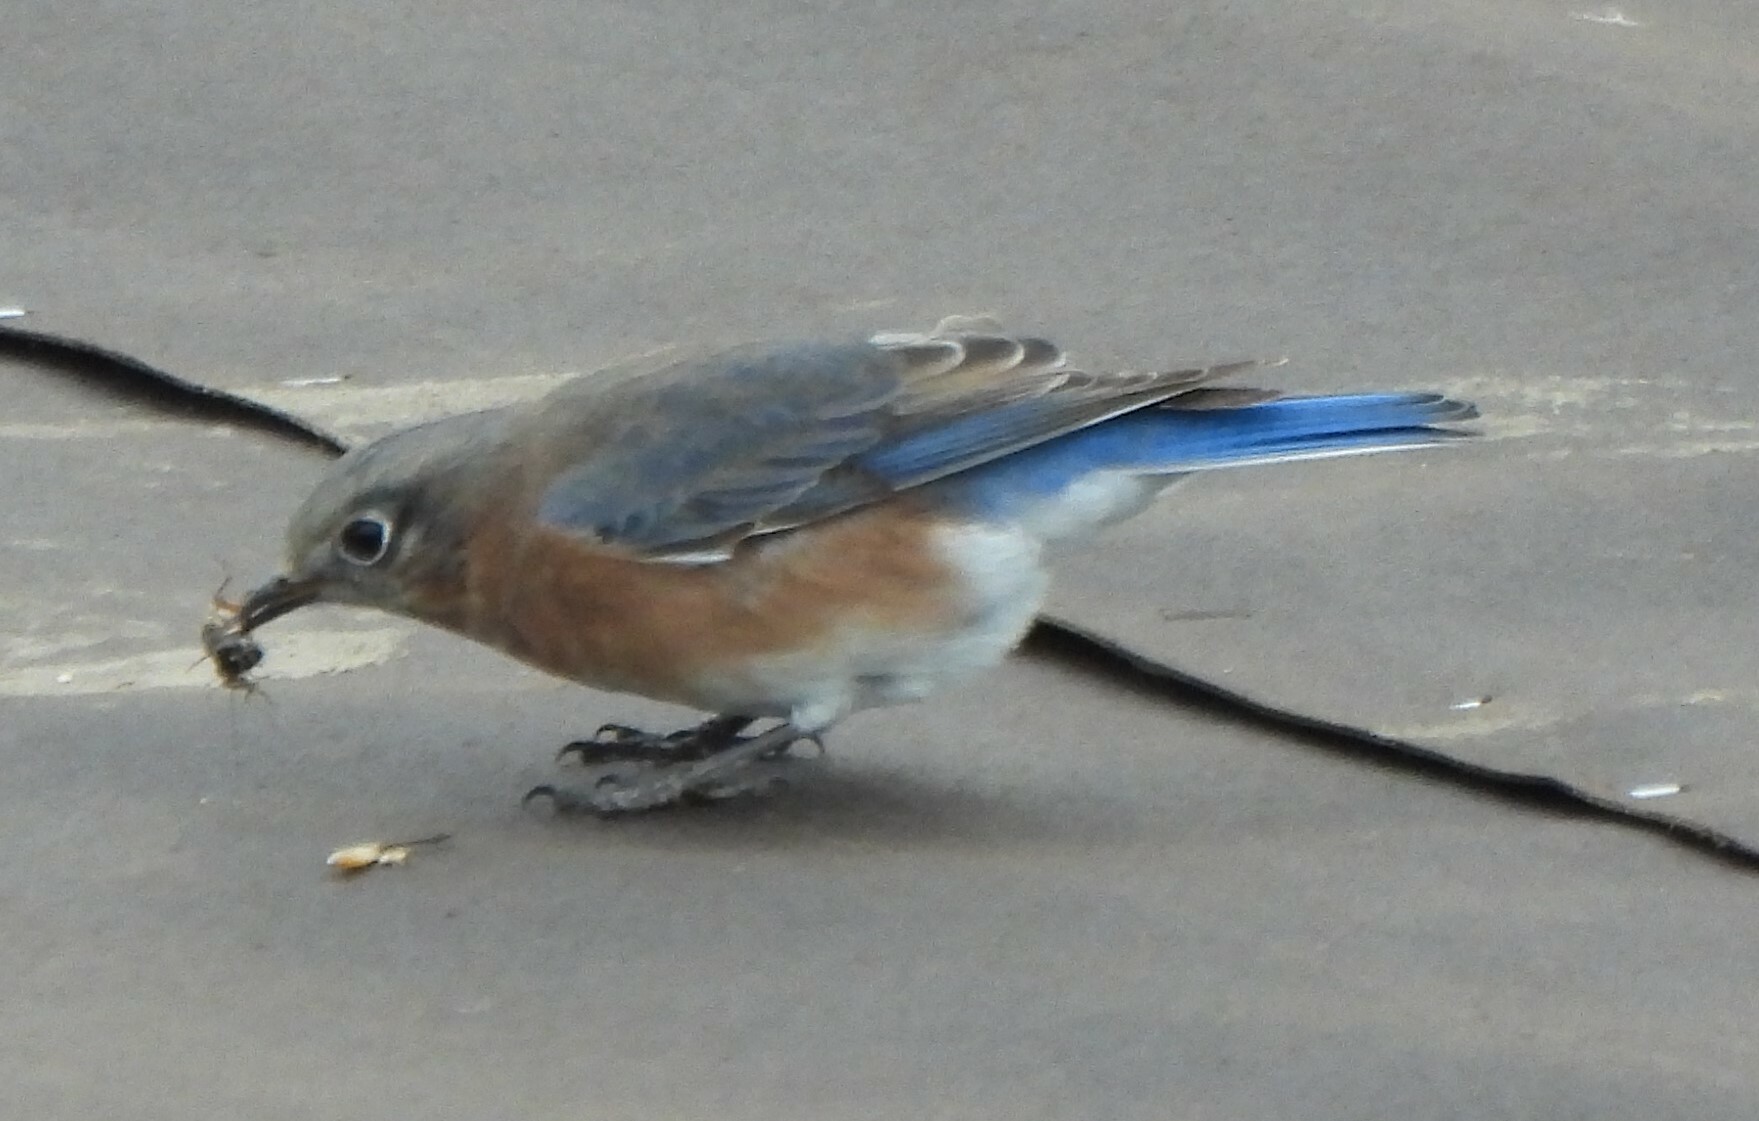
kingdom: Animalia
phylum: Chordata
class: Aves
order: Passeriformes
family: Turdidae
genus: Sialia
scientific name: Sialia sialis
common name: Eastern bluebird
